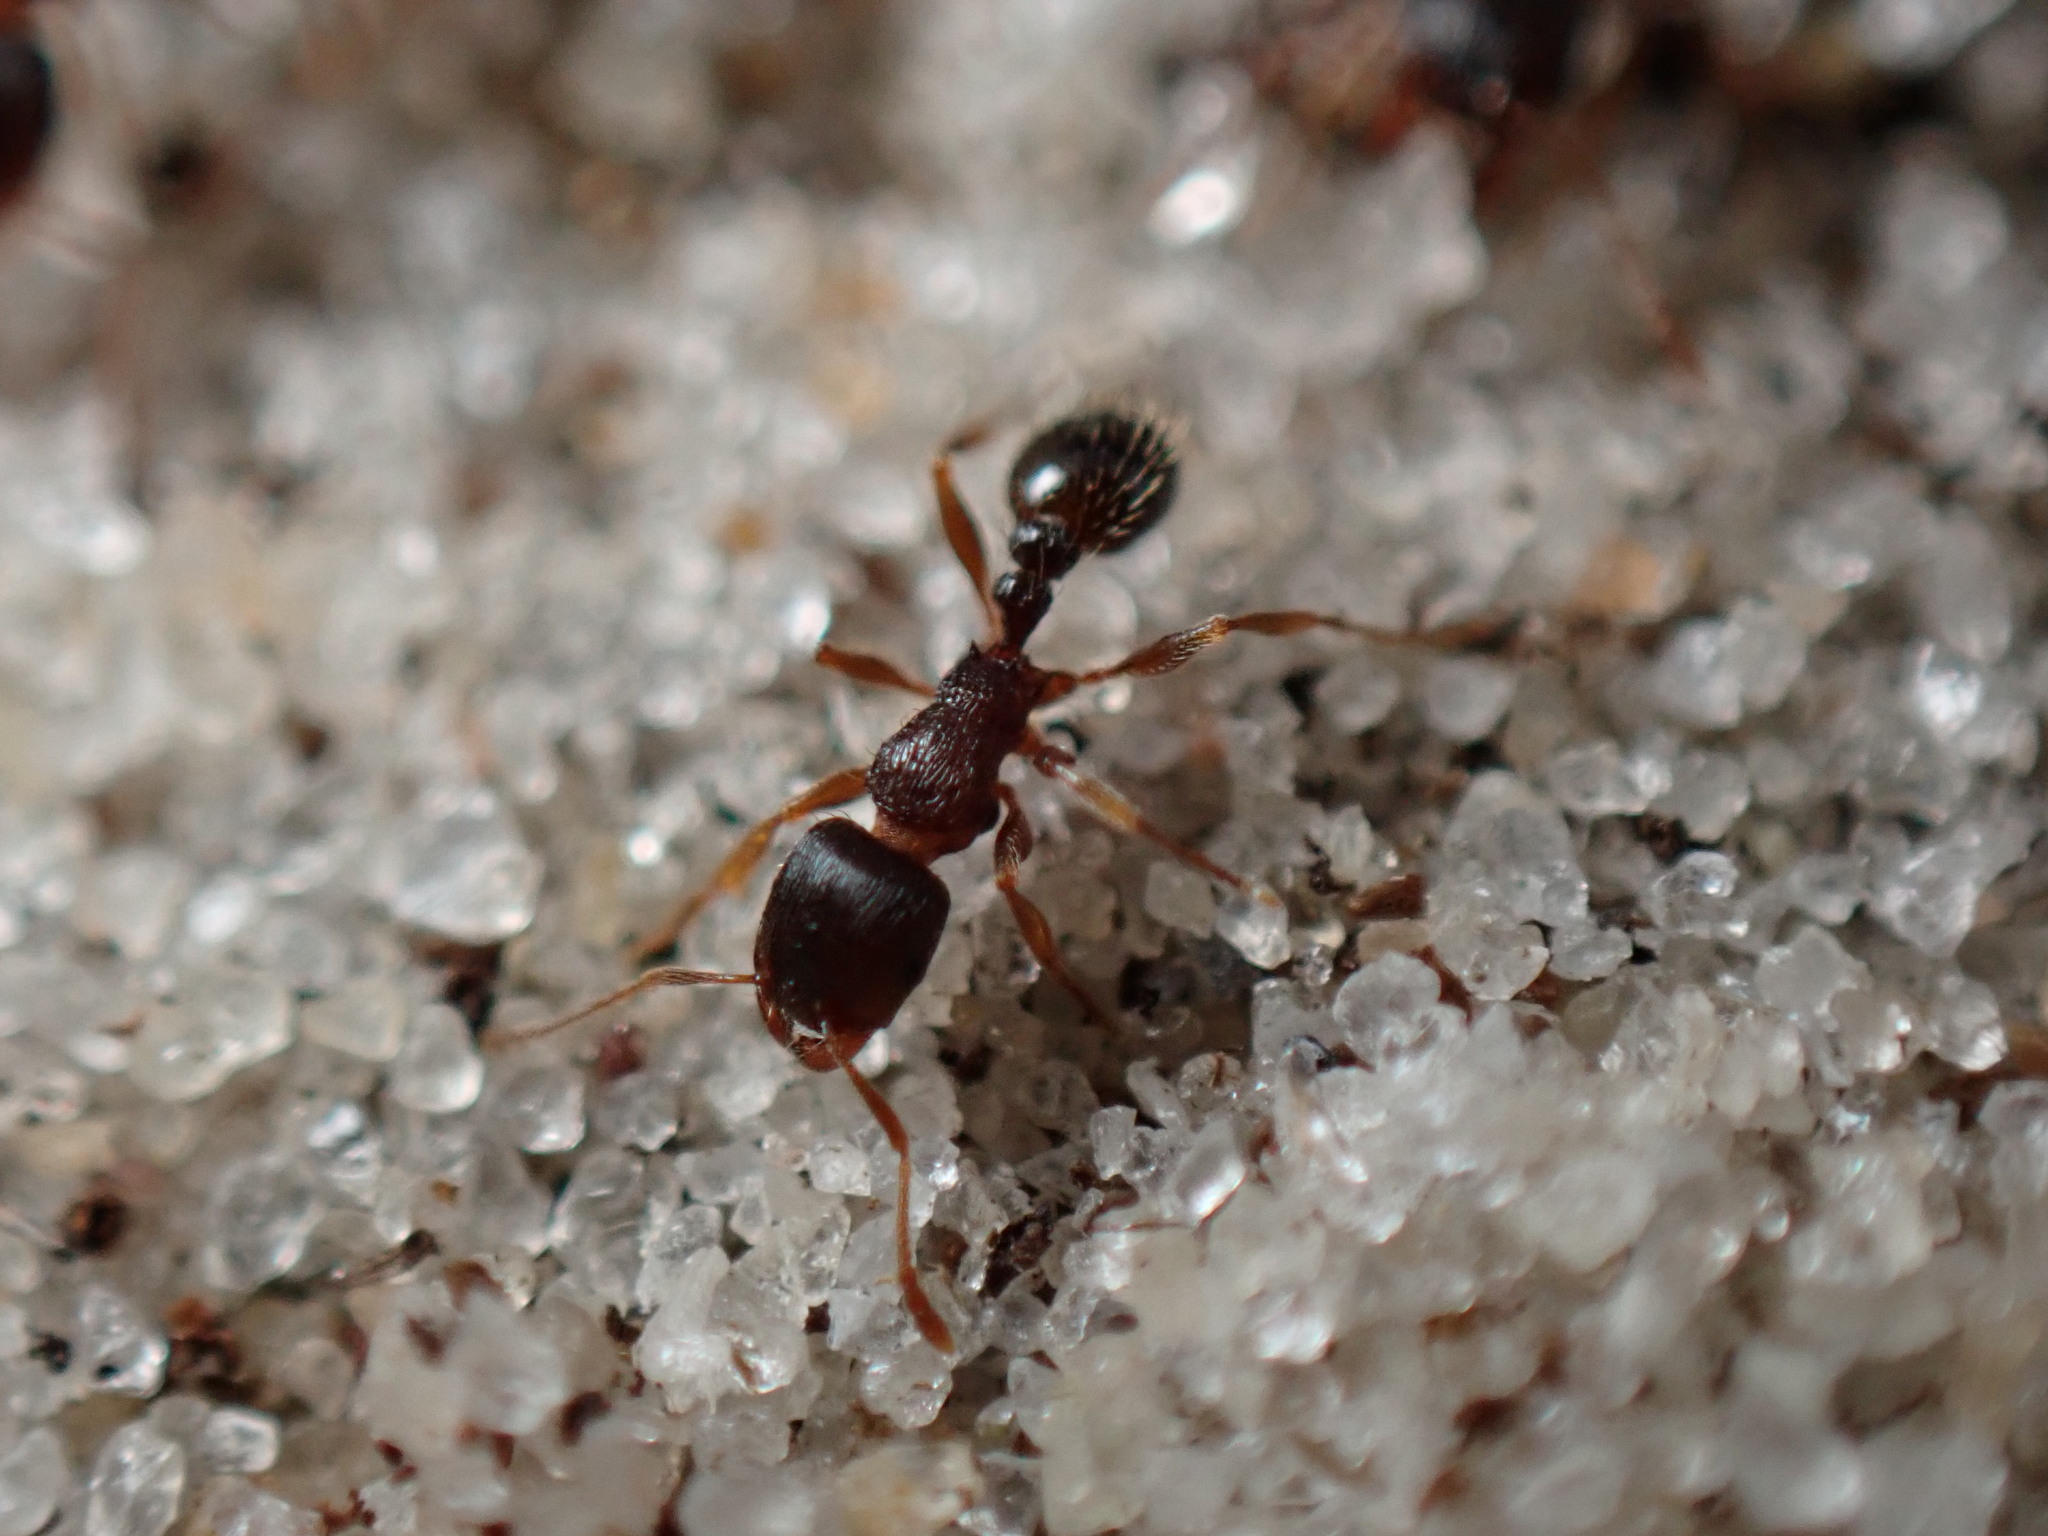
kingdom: Animalia
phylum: Arthropoda
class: Insecta
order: Hymenoptera
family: Formicidae
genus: Tetramorium
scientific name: Tetramorium immigrans
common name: Pavement ant
